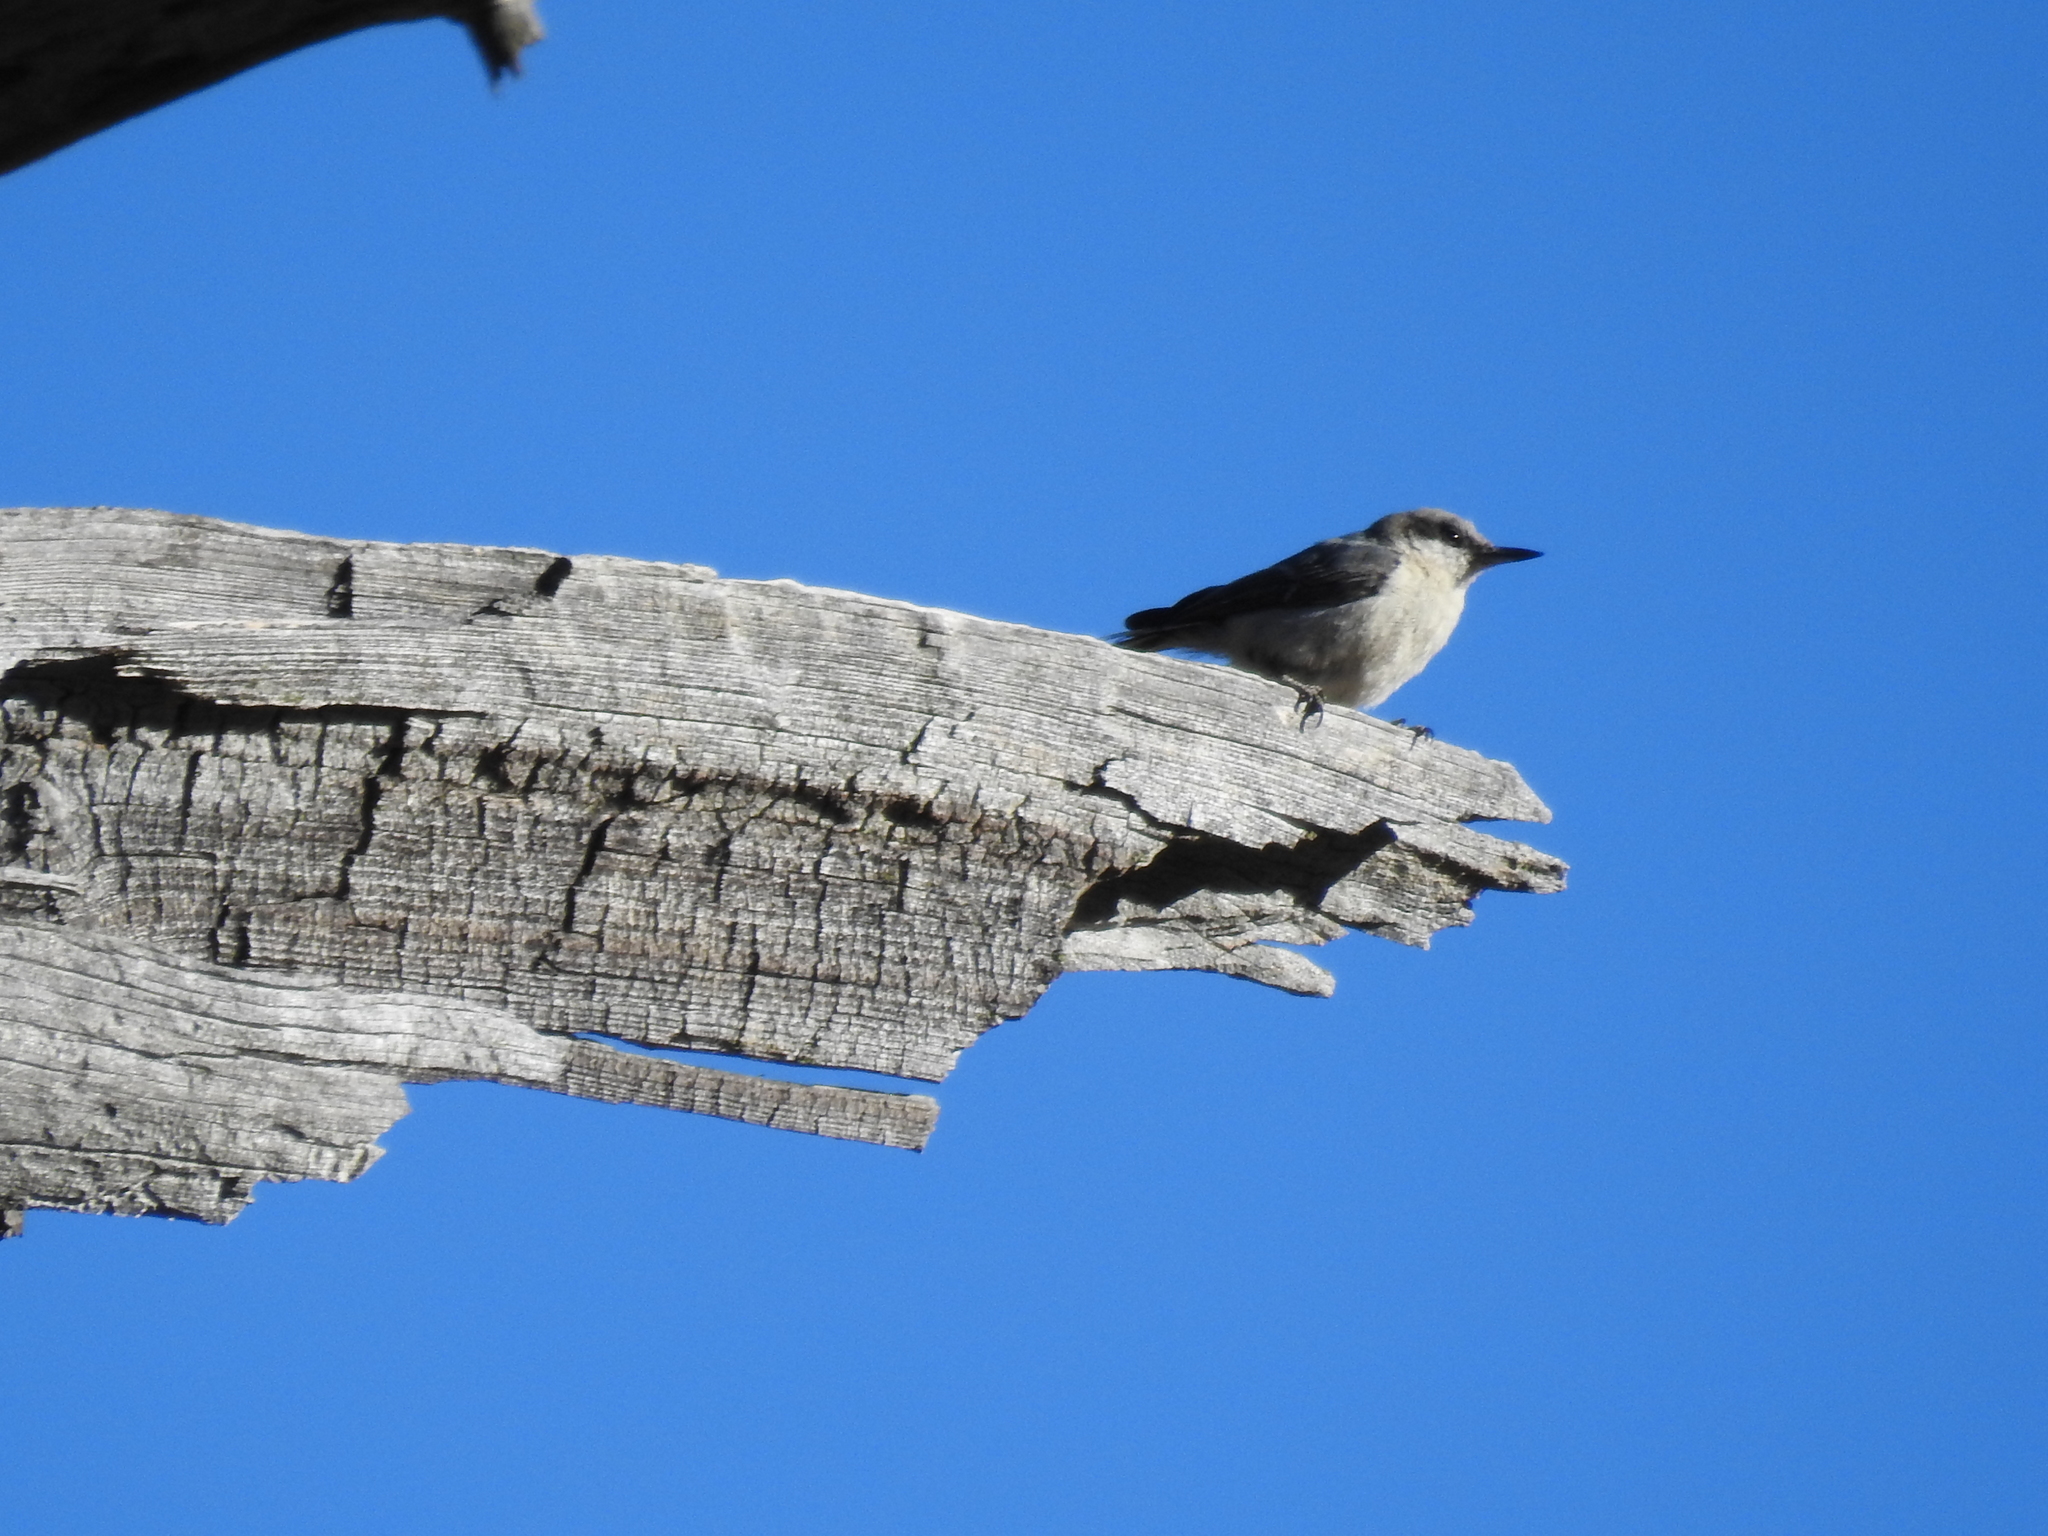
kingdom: Animalia
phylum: Chordata
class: Aves
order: Passeriformes
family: Sittidae
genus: Sitta
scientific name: Sitta pygmaea
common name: Pygmy nuthatch
